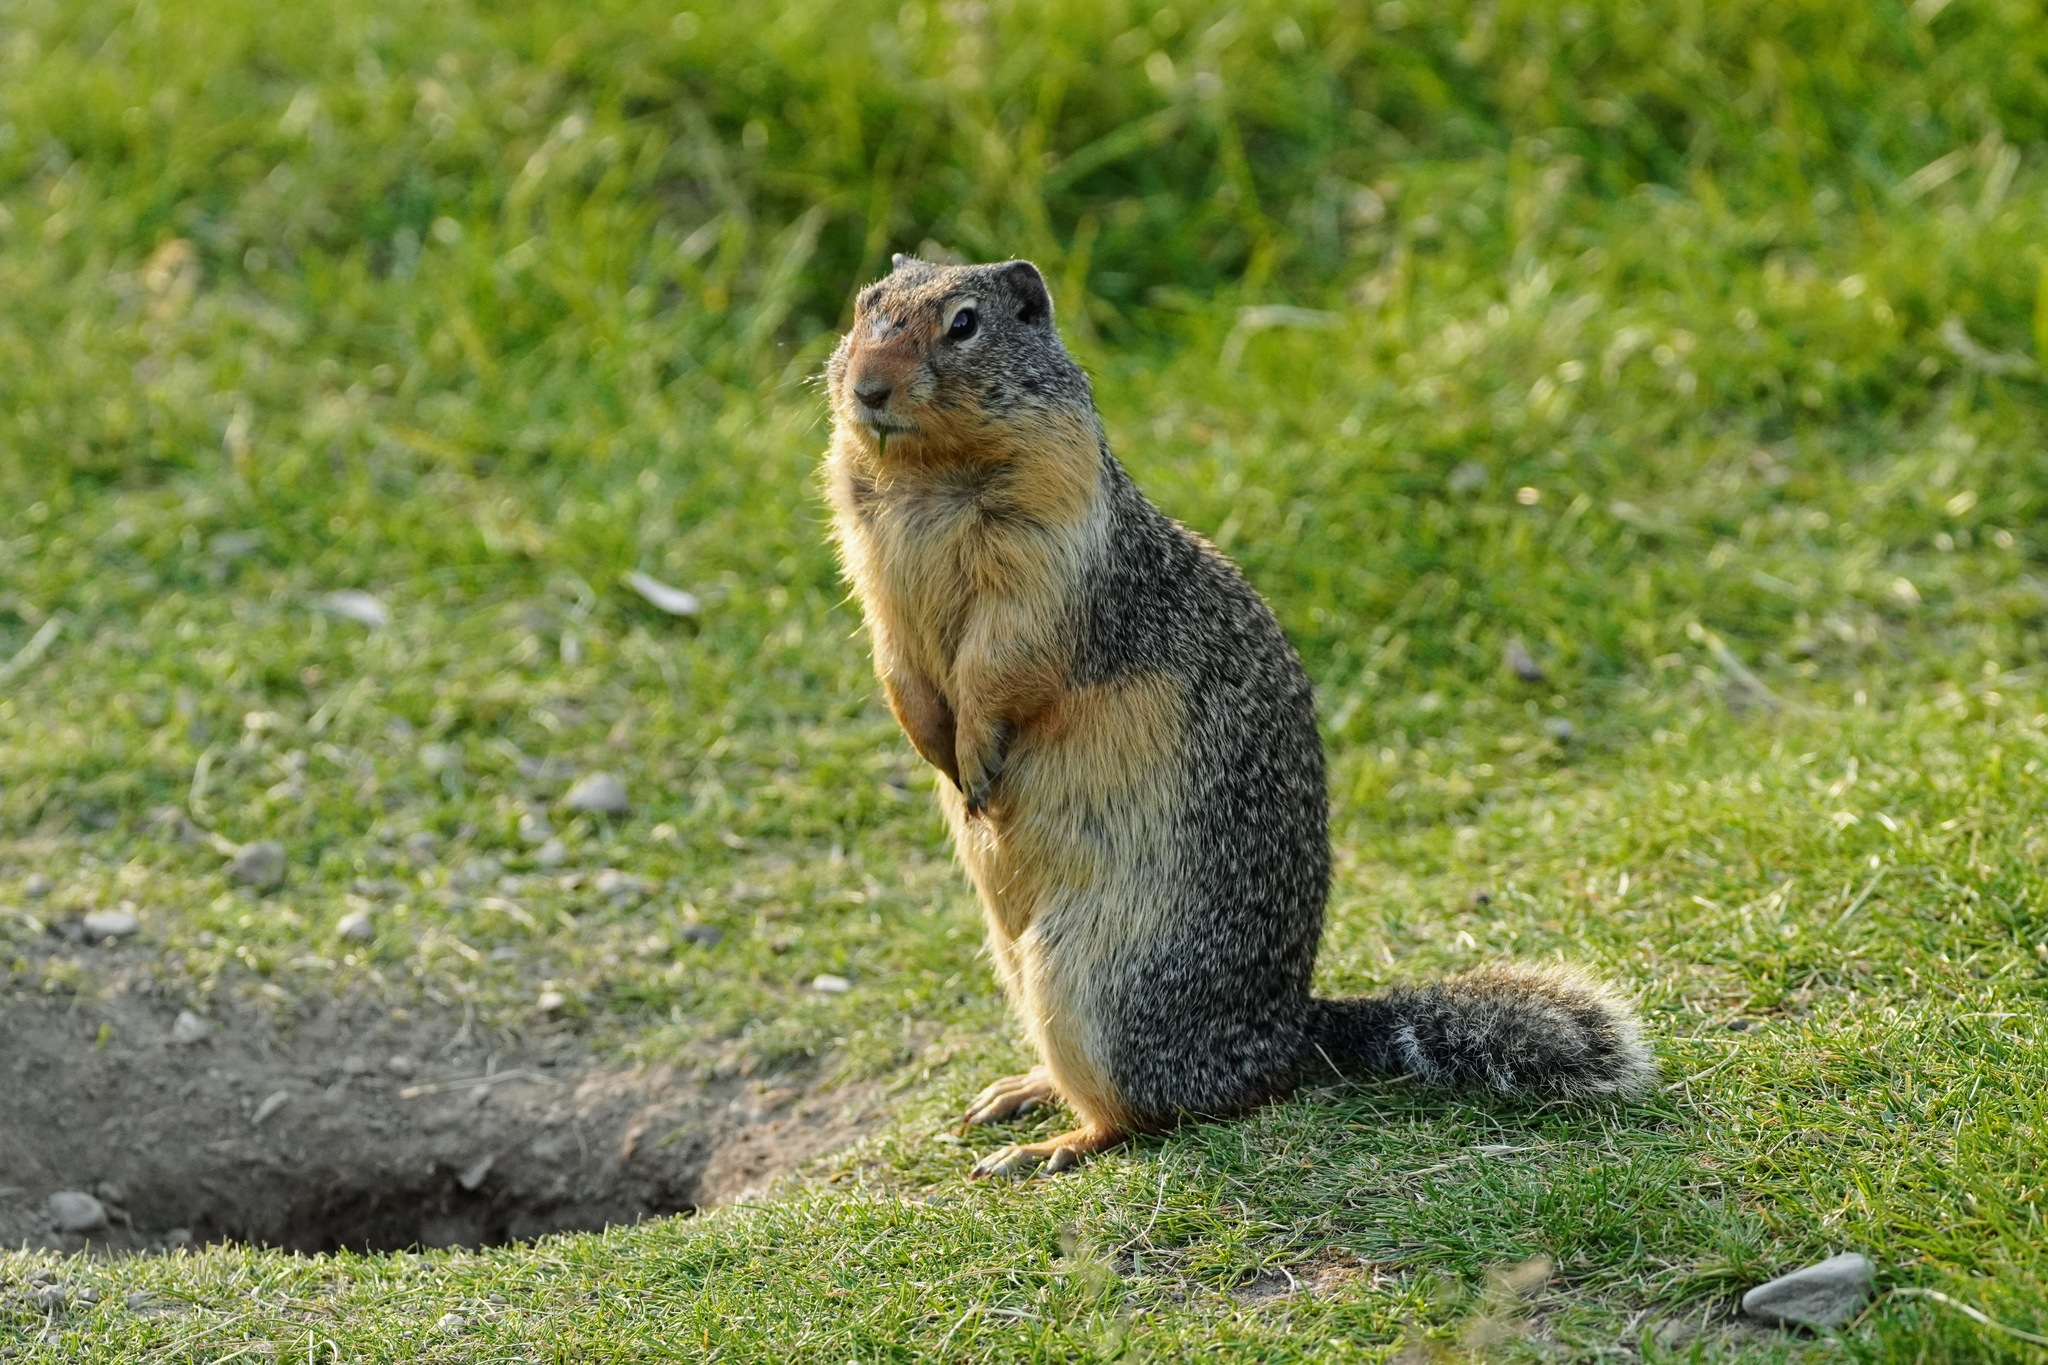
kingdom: Animalia
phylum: Chordata
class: Mammalia
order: Rodentia
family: Sciuridae
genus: Urocitellus
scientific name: Urocitellus columbianus
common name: Columbian ground squirrel
